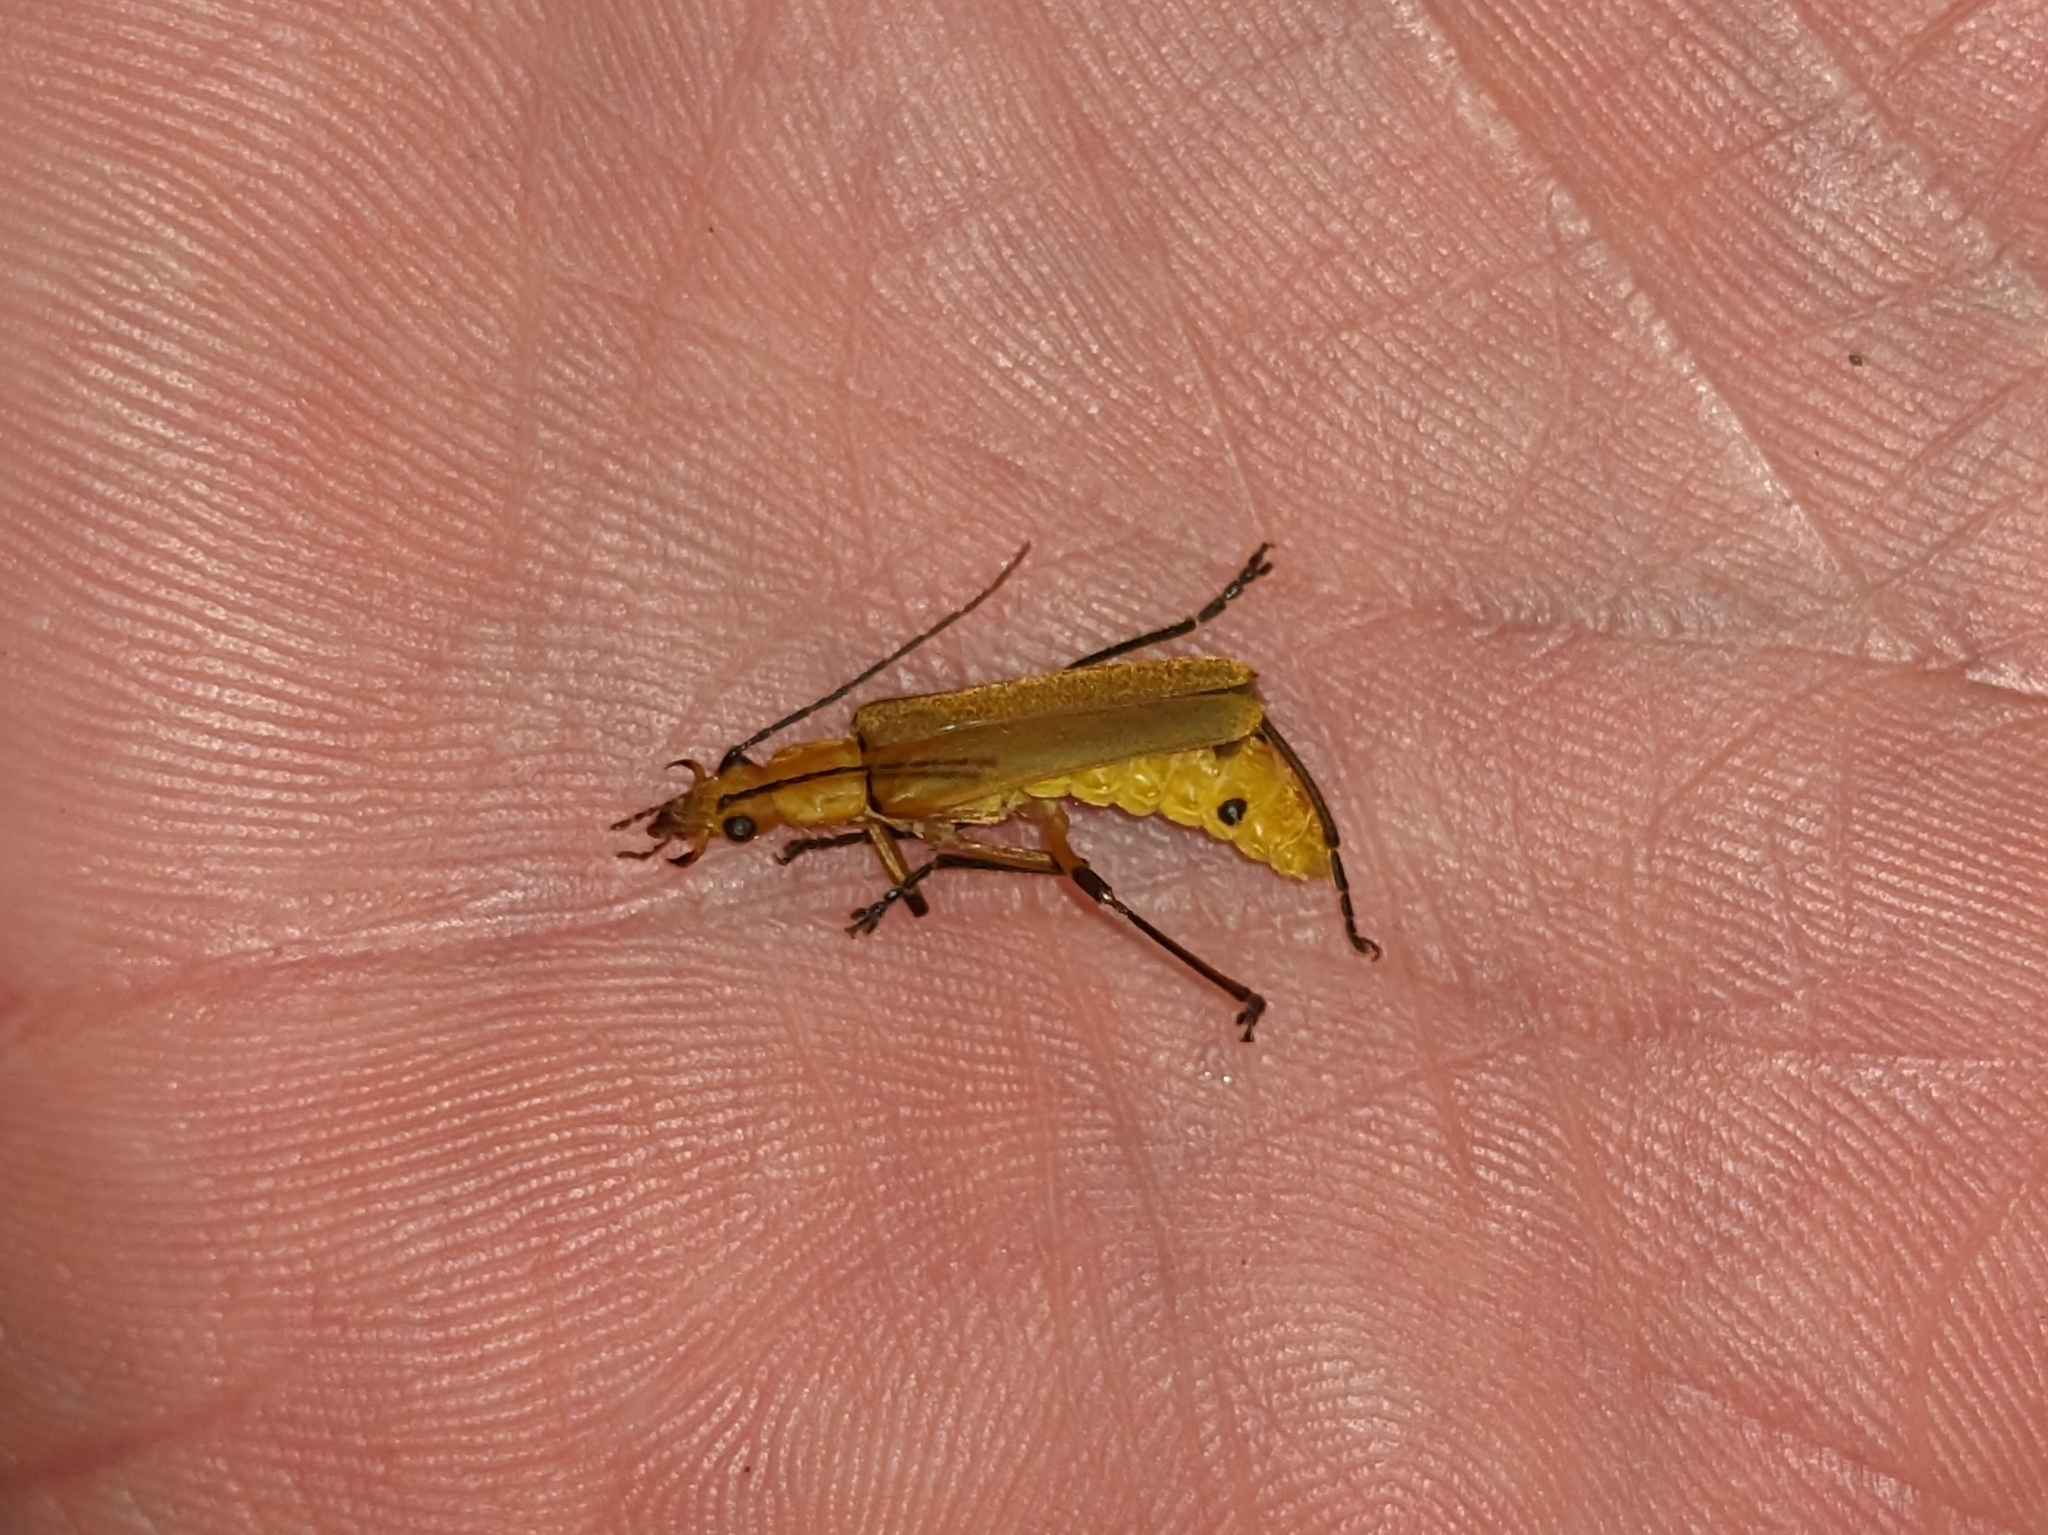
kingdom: Animalia
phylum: Arthropoda
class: Insecta
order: Coleoptera
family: Cantharidae
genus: Chauliognathus
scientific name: Chauliognathus
